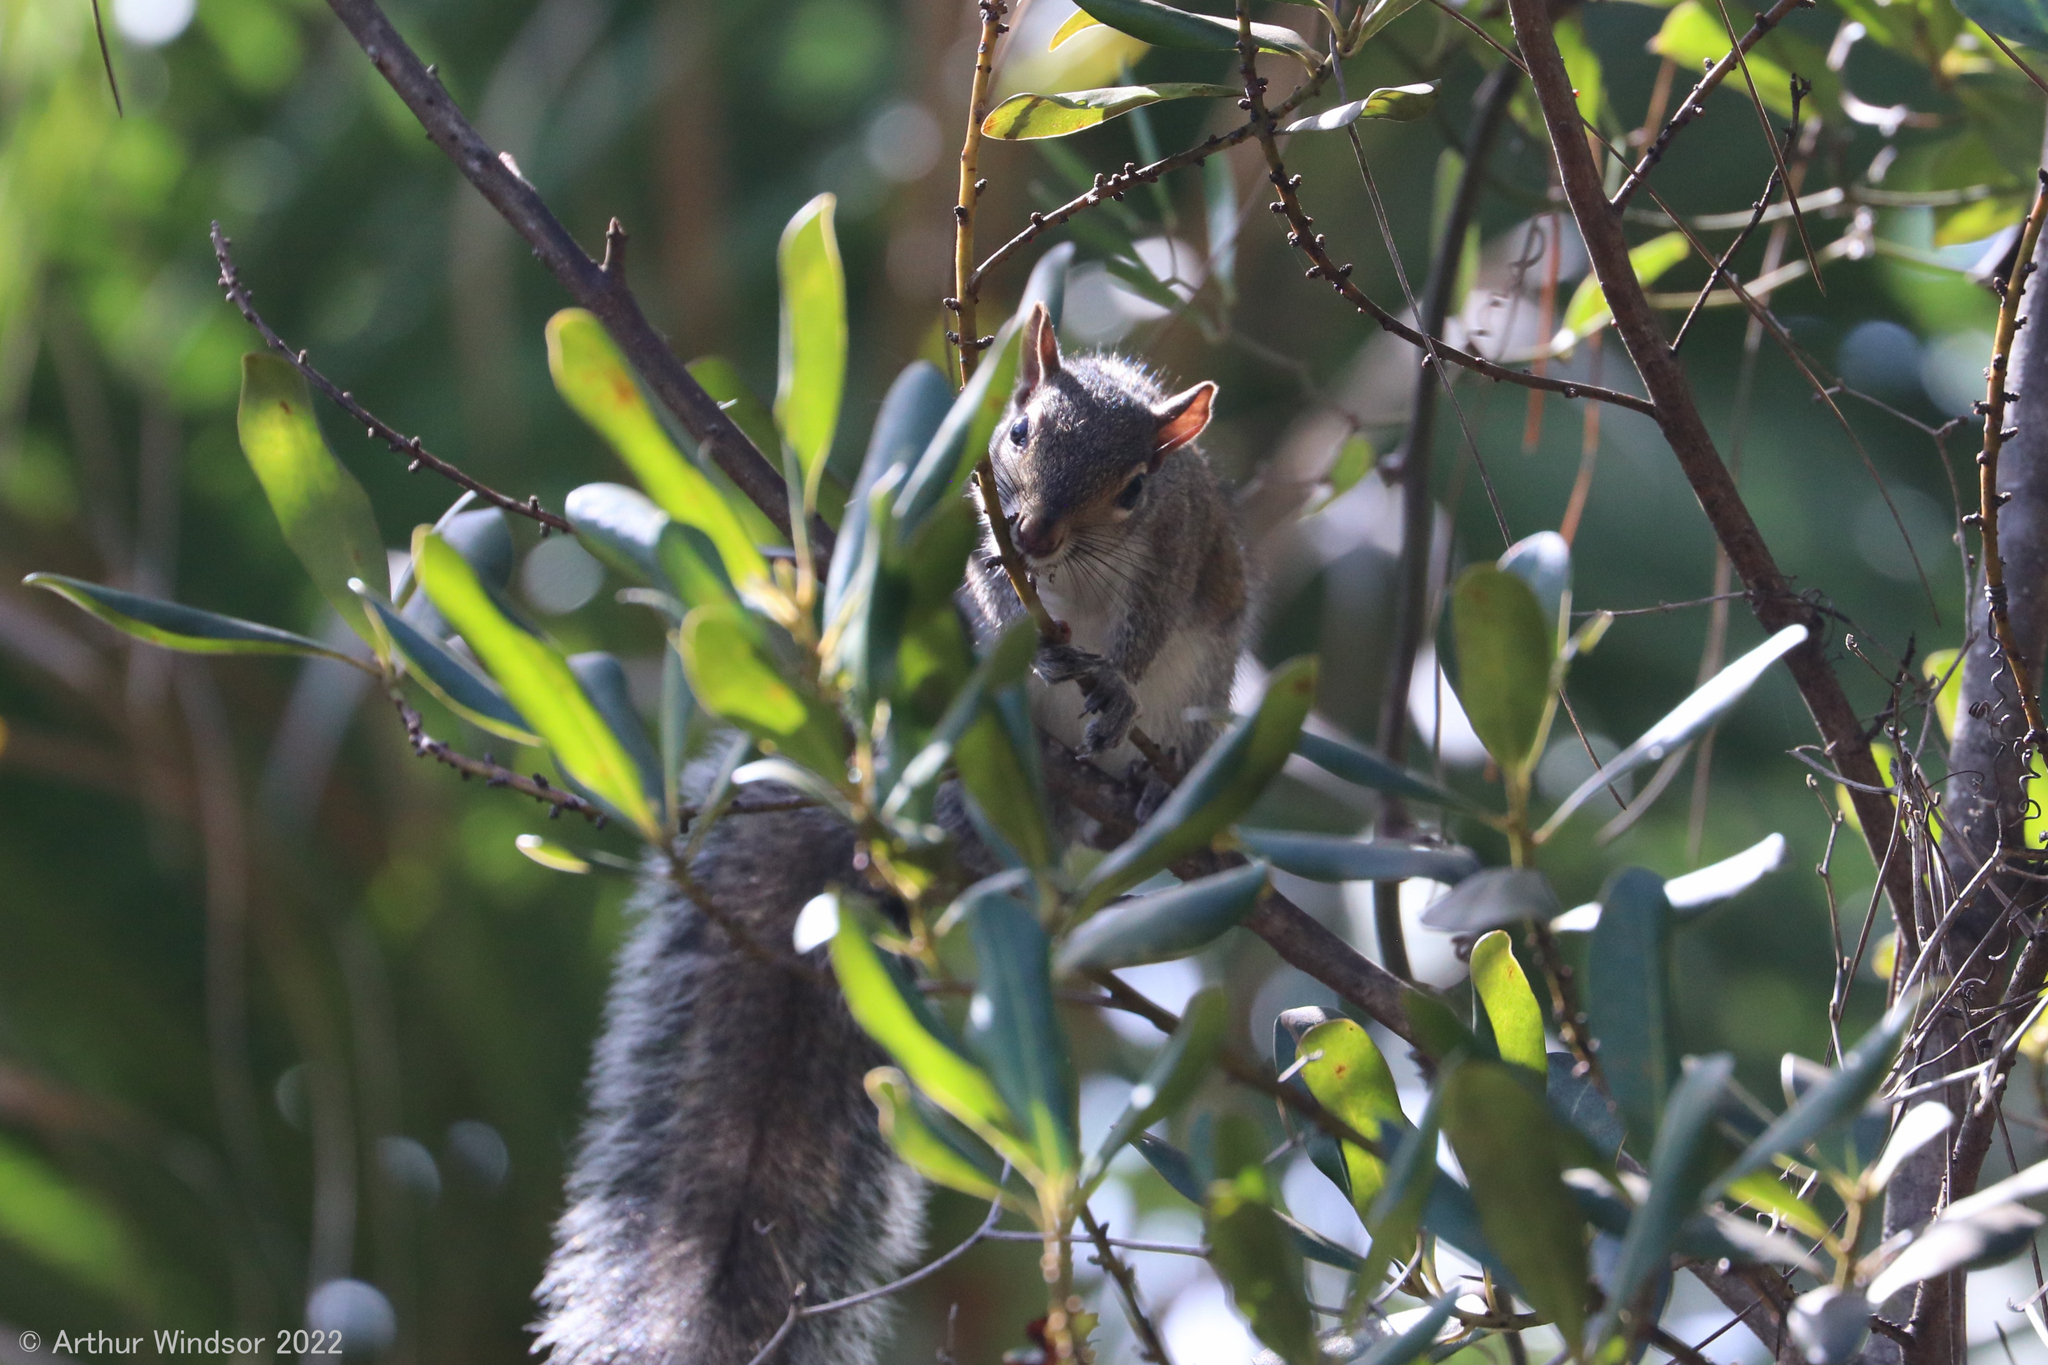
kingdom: Animalia
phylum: Chordata
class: Mammalia
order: Rodentia
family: Sciuridae
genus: Sciurus
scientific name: Sciurus carolinensis
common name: Eastern gray squirrel
